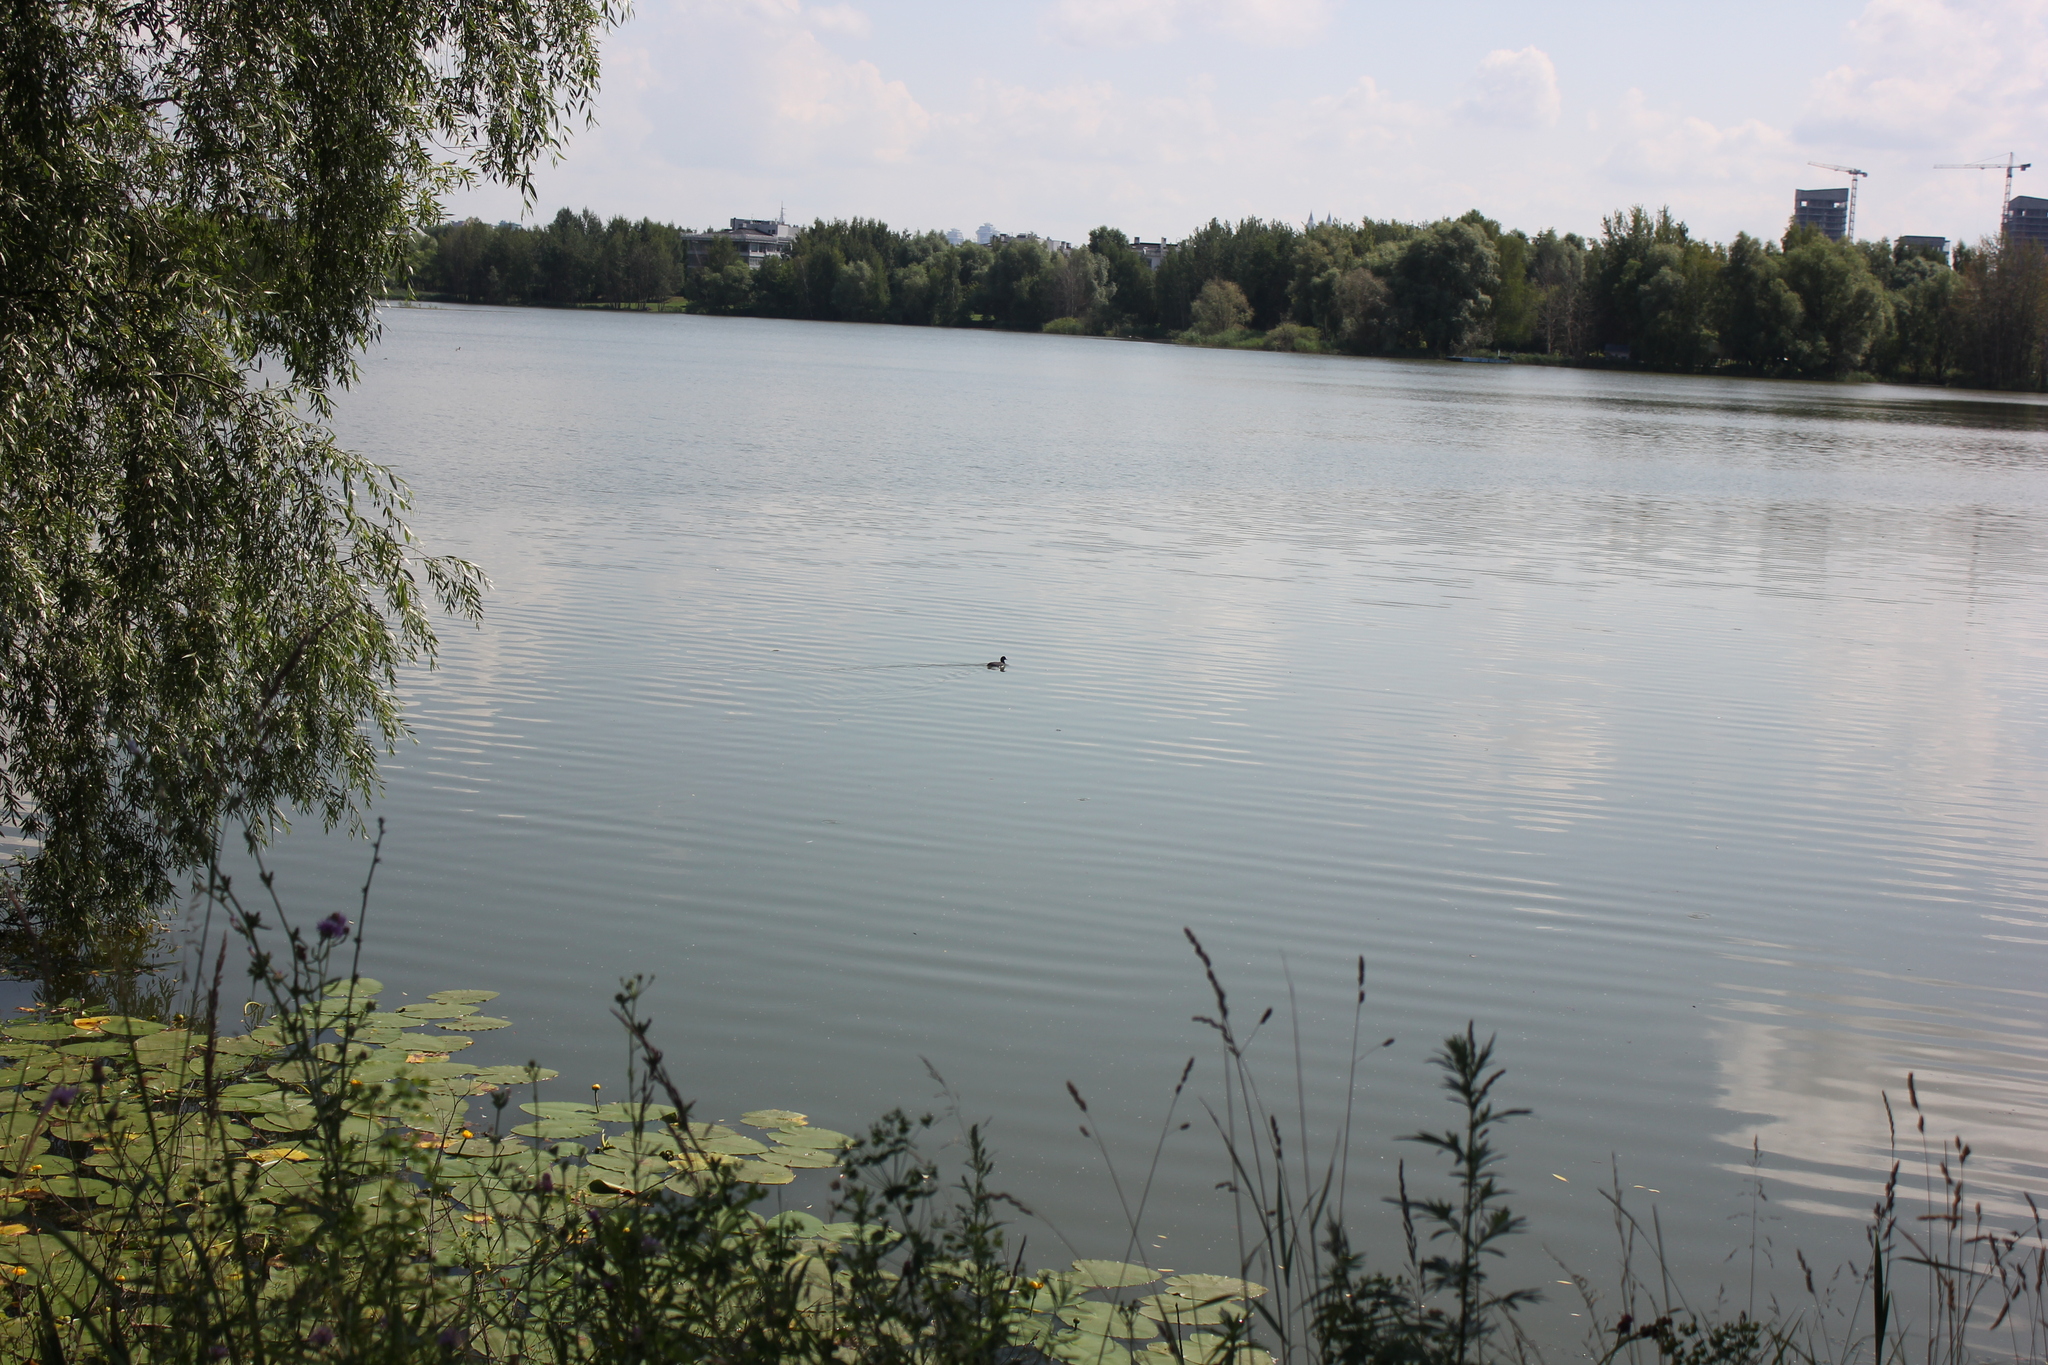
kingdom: Animalia
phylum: Chordata
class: Aves
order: Gruiformes
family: Rallidae
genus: Fulica
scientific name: Fulica atra
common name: Eurasian coot
